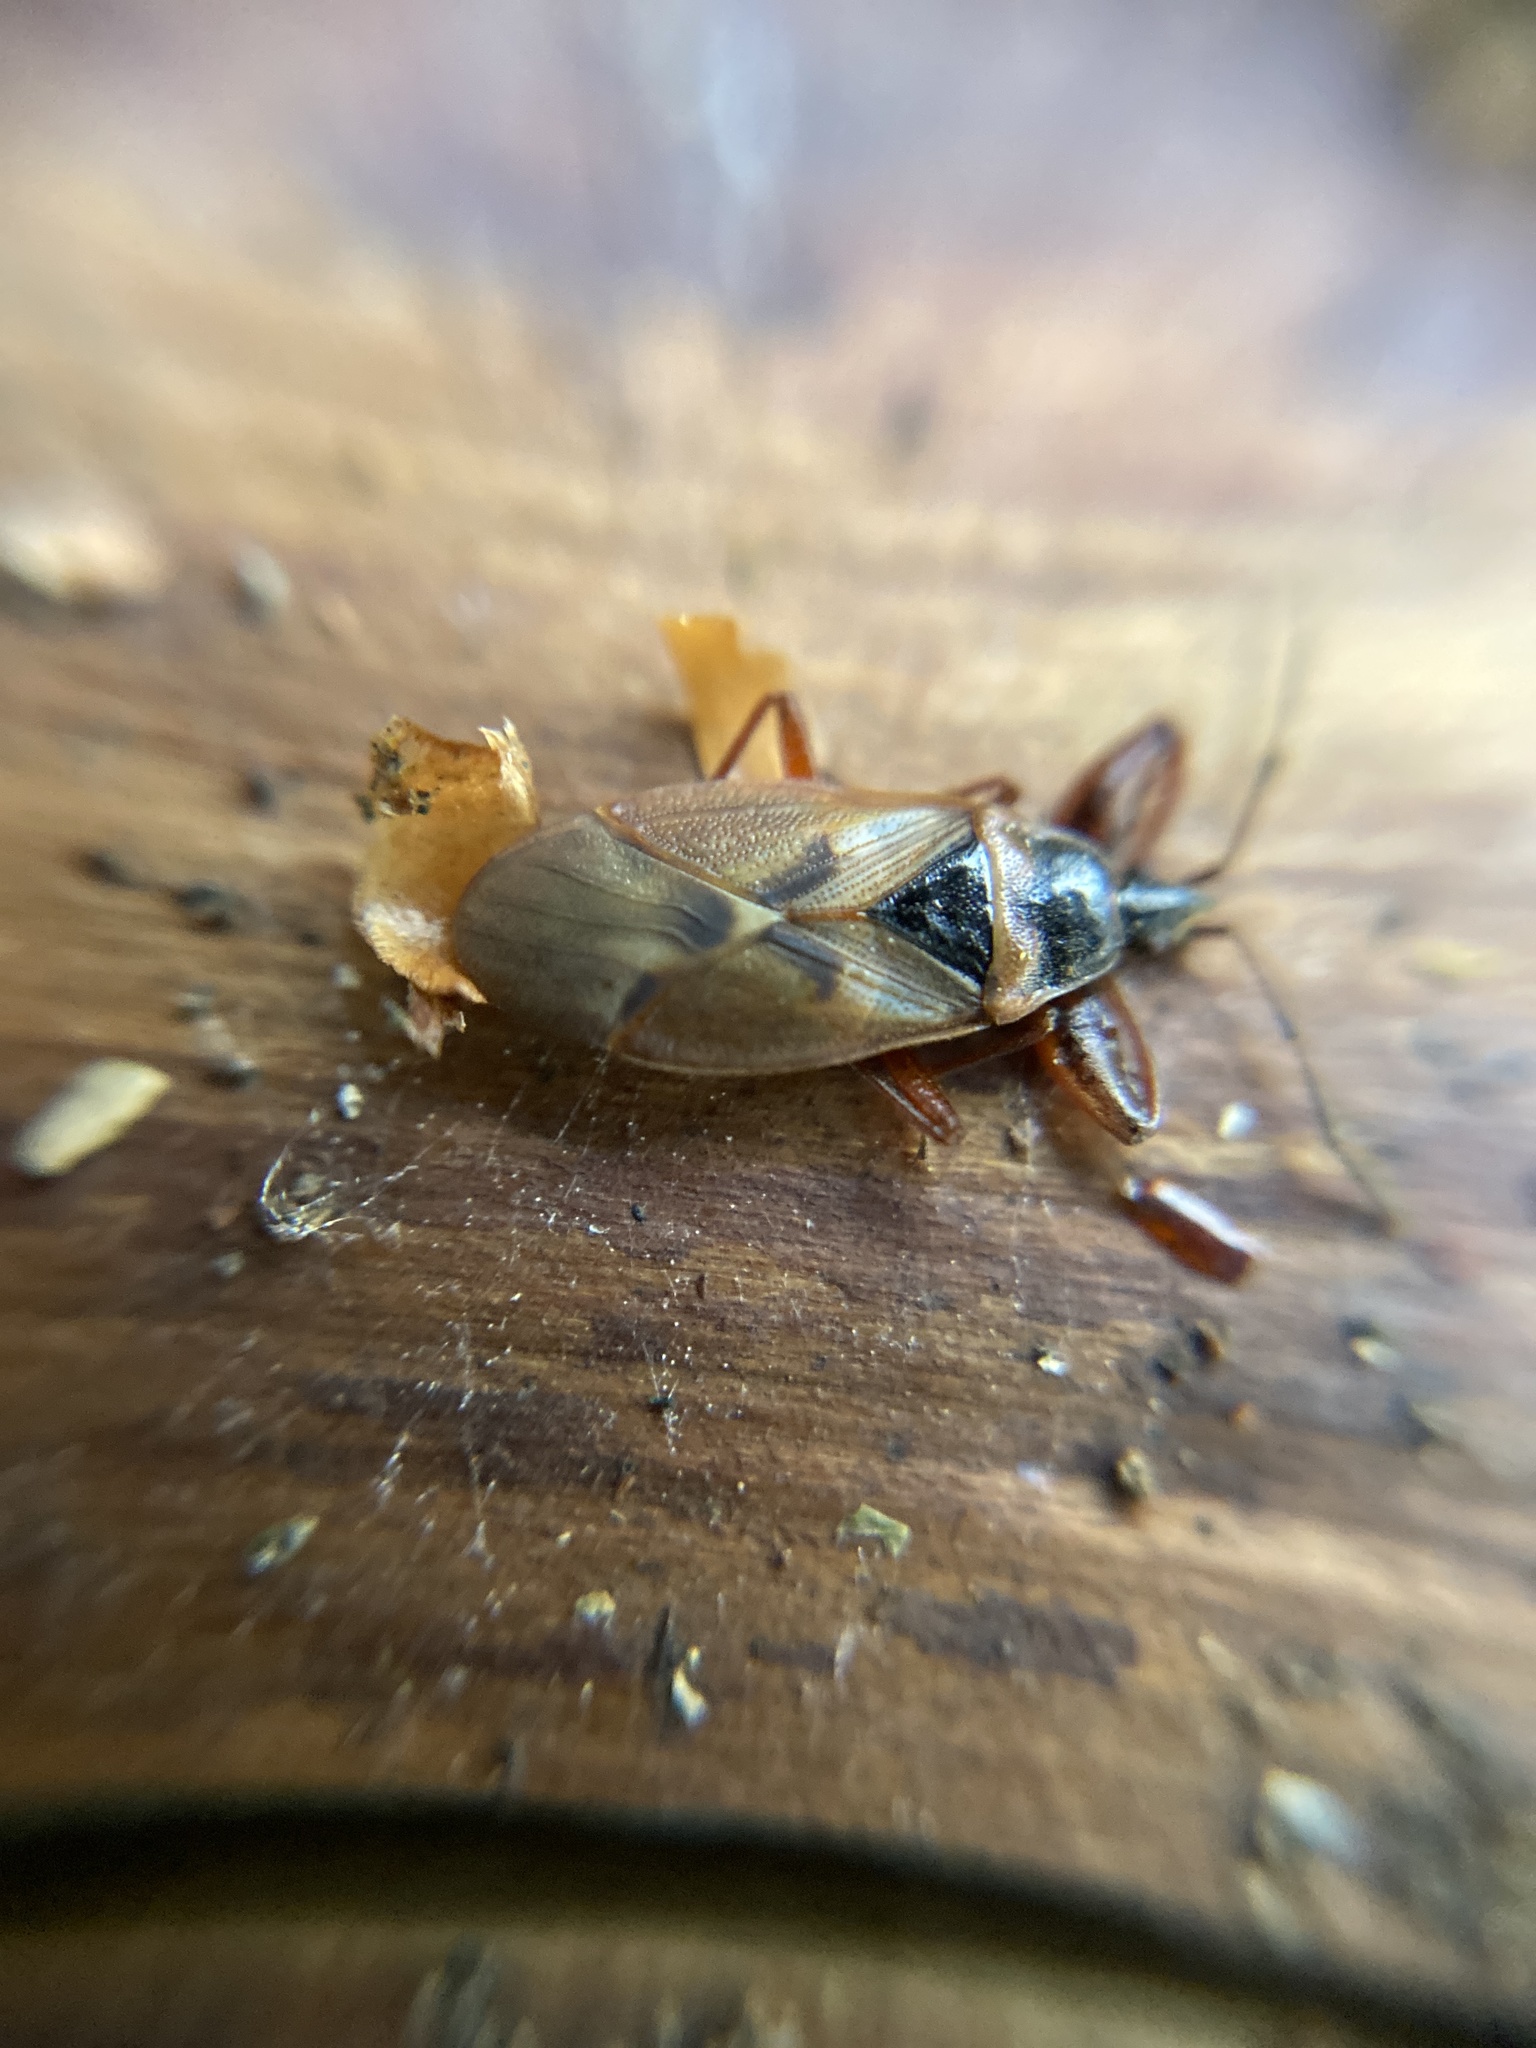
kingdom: Animalia
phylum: Arthropoda
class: Insecta
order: Hemiptera
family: Rhyparochromidae
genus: Gastrodes
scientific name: Gastrodes abietum
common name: Spruce cone bug
